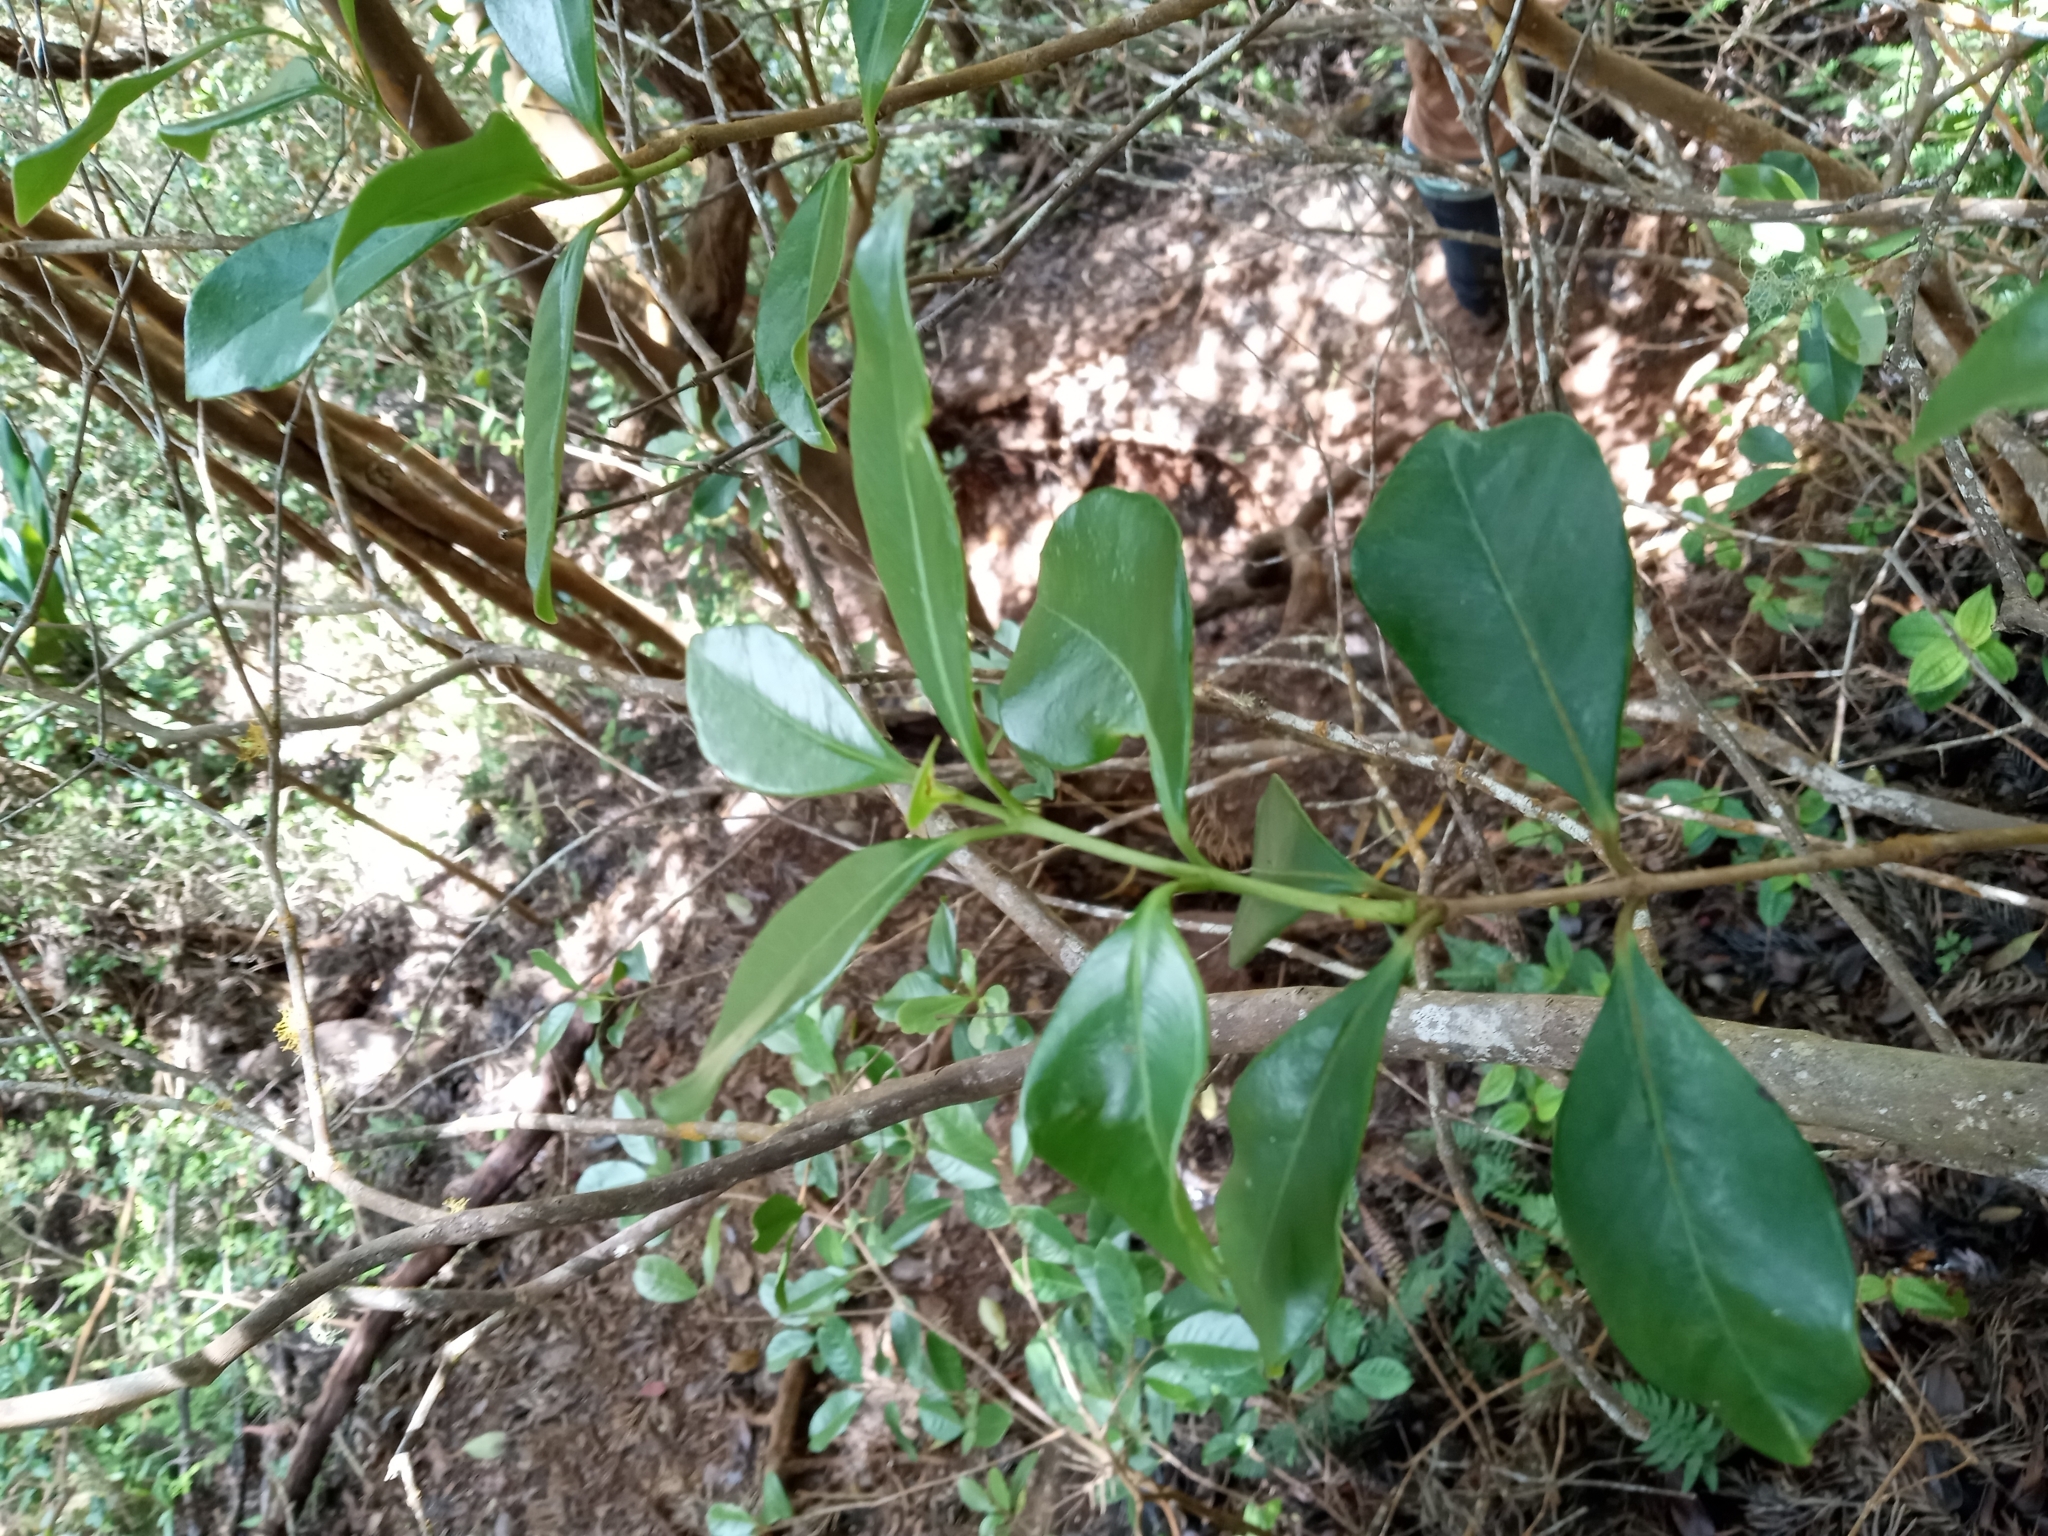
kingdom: Plantae
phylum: Tracheophyta
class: Magnoliopsida
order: Myrtales
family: Myrtaceae
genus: Psidium
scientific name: Psidium cattleianum
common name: Strawberry guava
